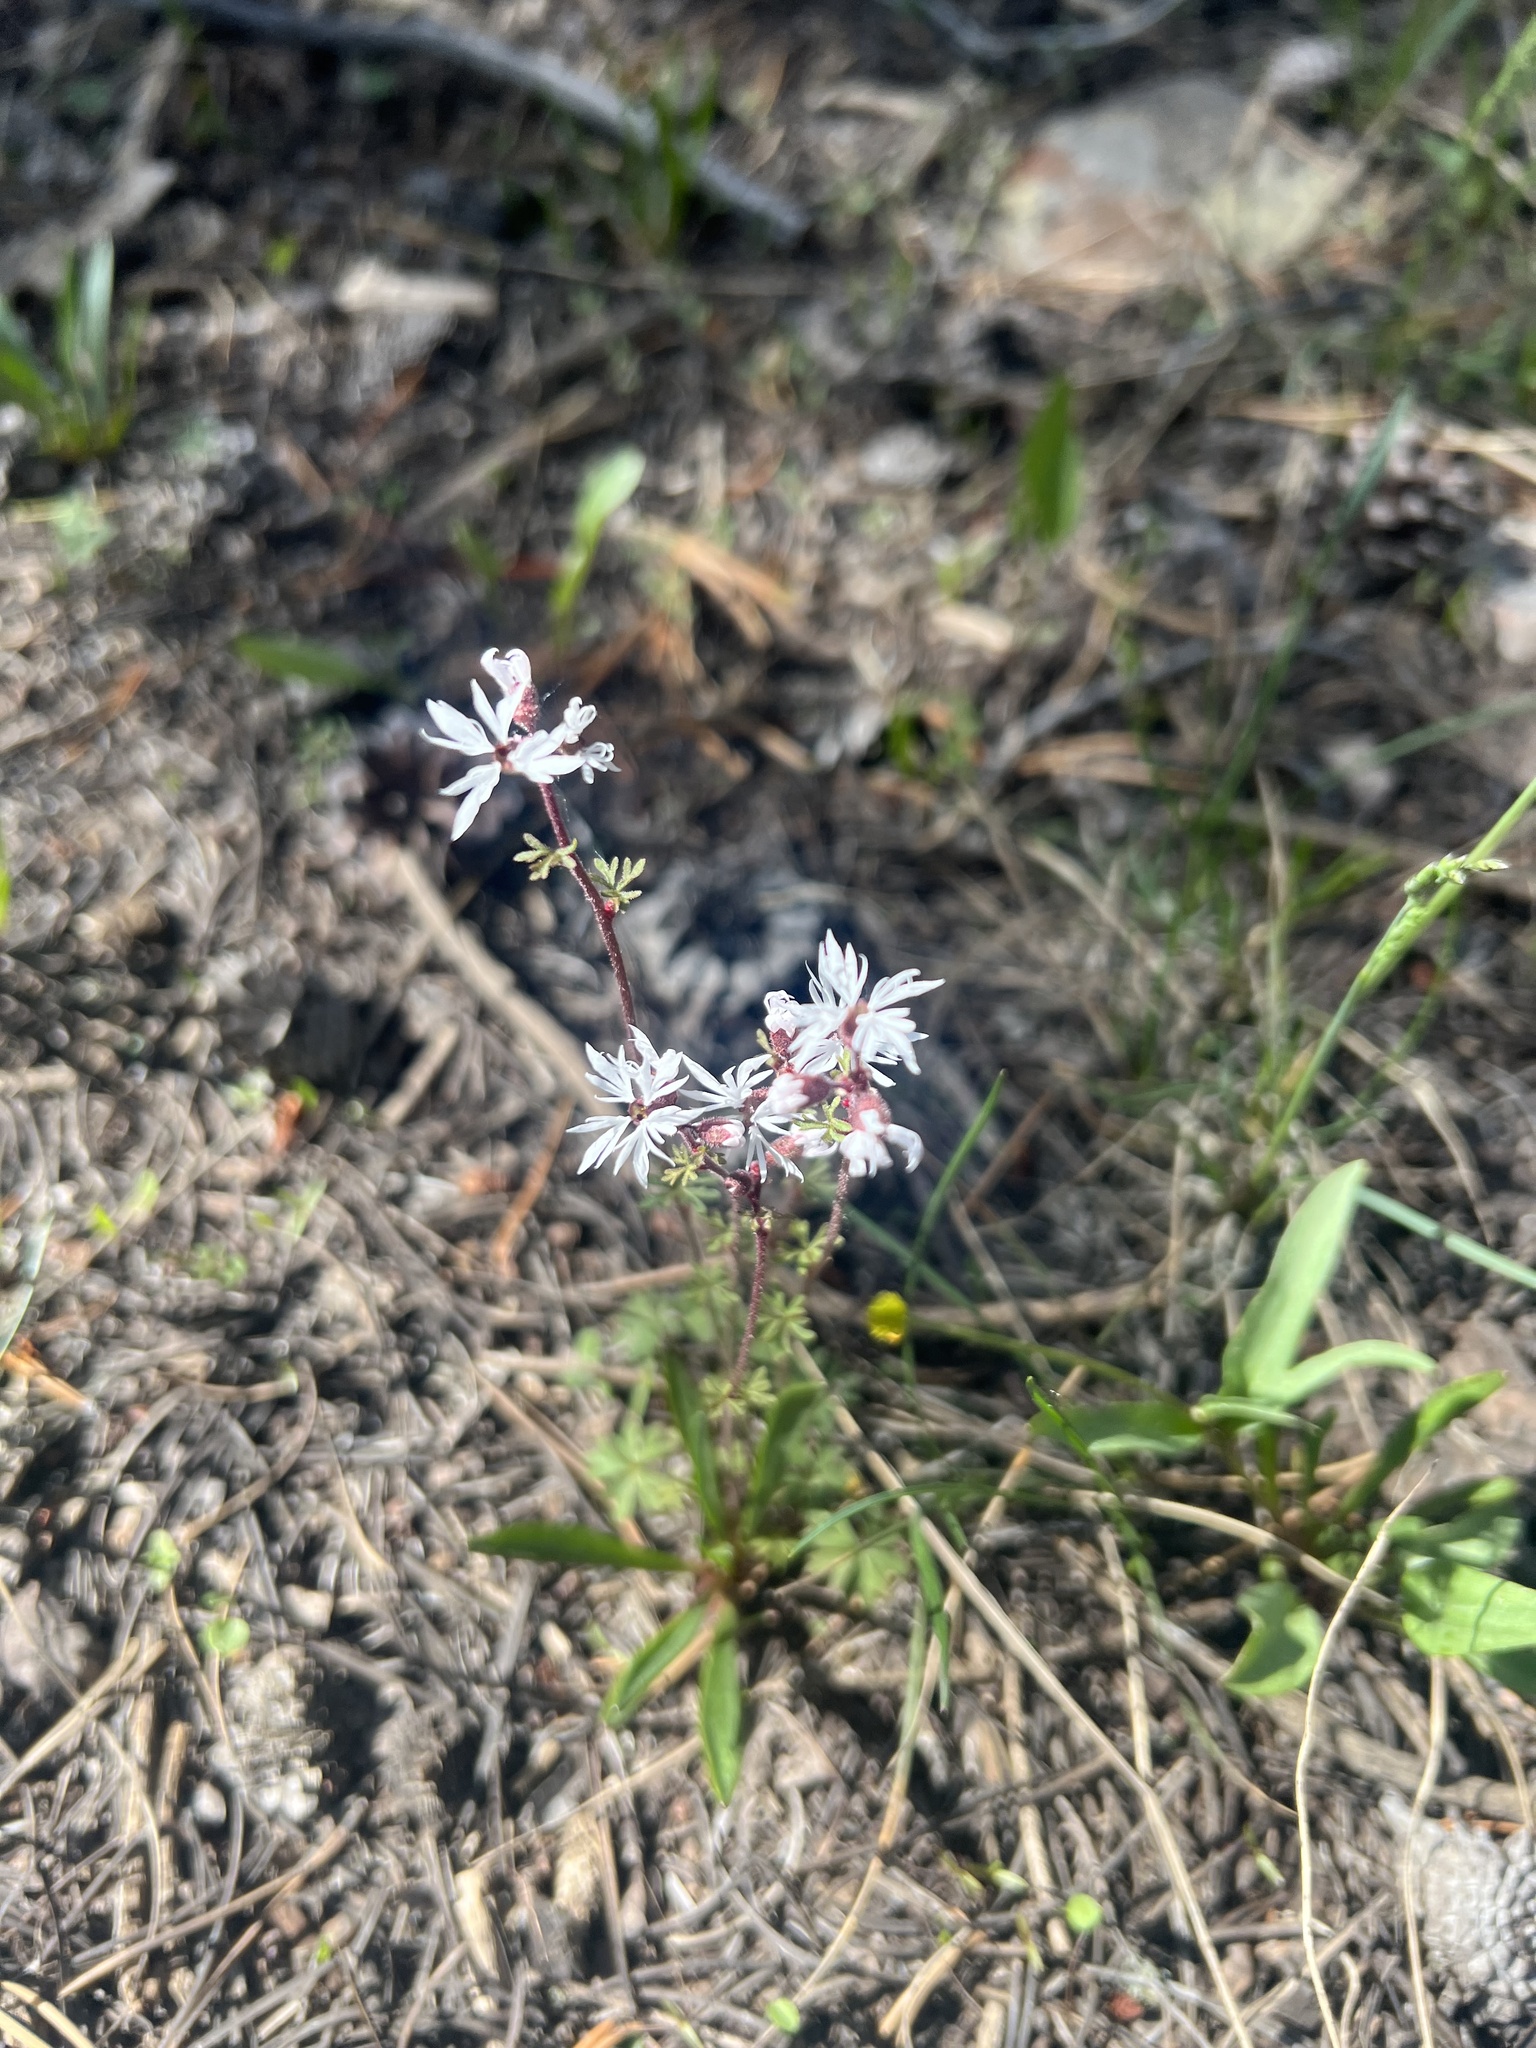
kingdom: Plantae
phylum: Tracheophyta
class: Magnoliopsida
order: Saxifragales
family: Saxifragaceae
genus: Lithophragma
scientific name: Lithophragma glabrum
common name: Bulbous prairie-star
